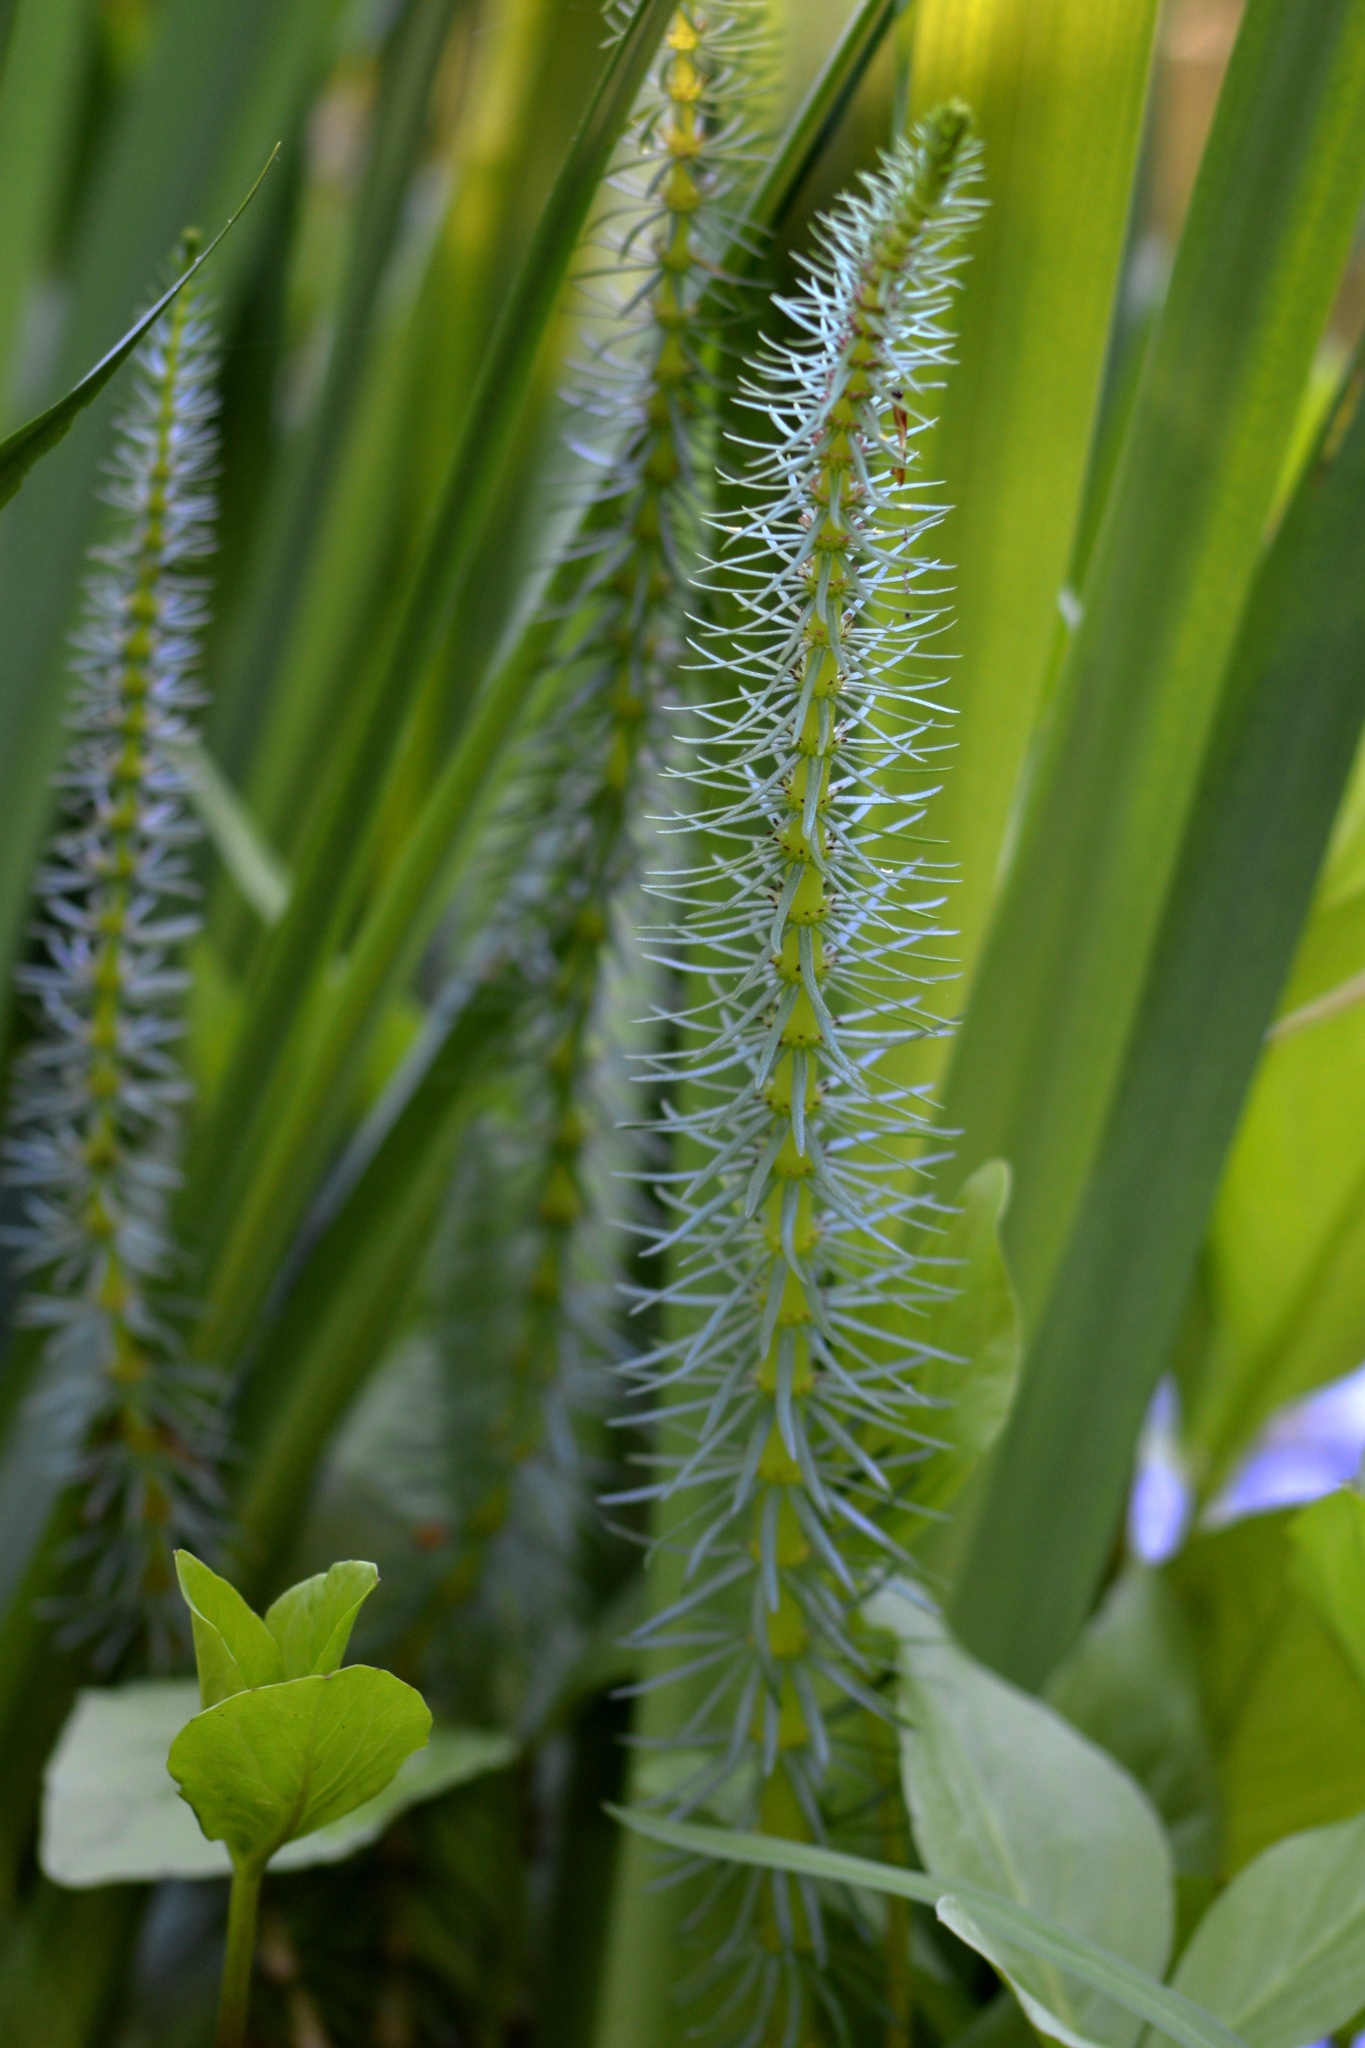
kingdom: Plantae
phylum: Tracheophyta
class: Magnoliopsida
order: Lamiales
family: Plantaginaceae
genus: Hippuris
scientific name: Hippuris vulgaris
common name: Mare's-tail
